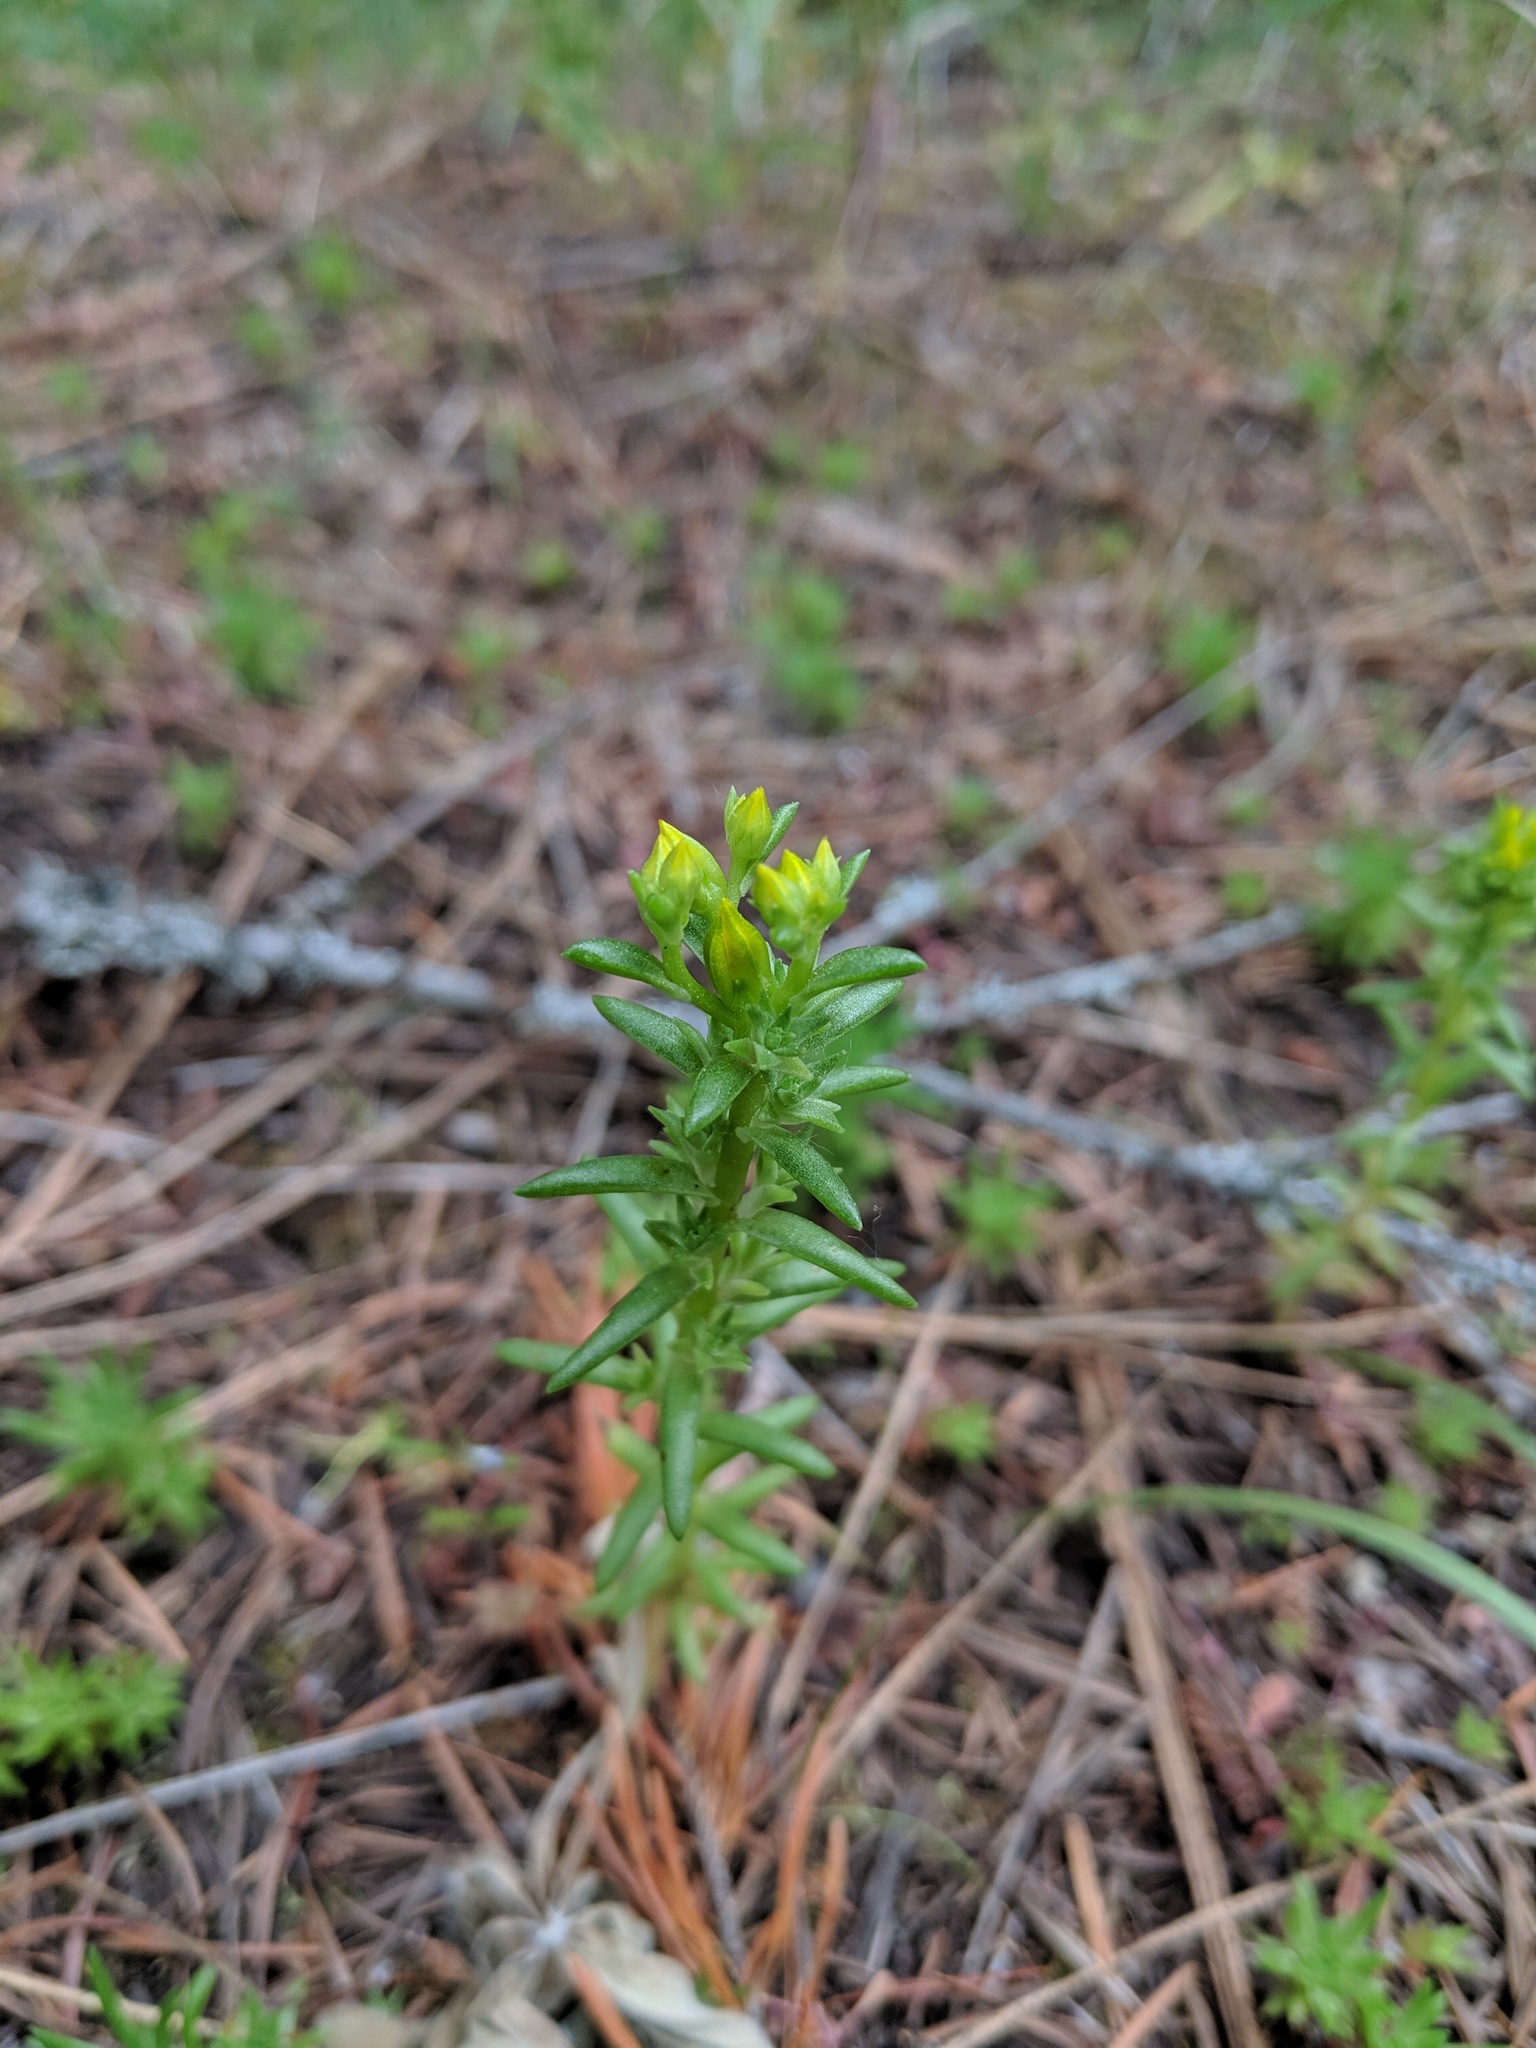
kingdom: Plantae
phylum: Tracheophyta
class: Magnoliopsida
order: Saxifragales
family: Crassulaceae
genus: Sedum
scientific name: Sedum stenopetalum
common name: Narrow-petaled stonecrop
